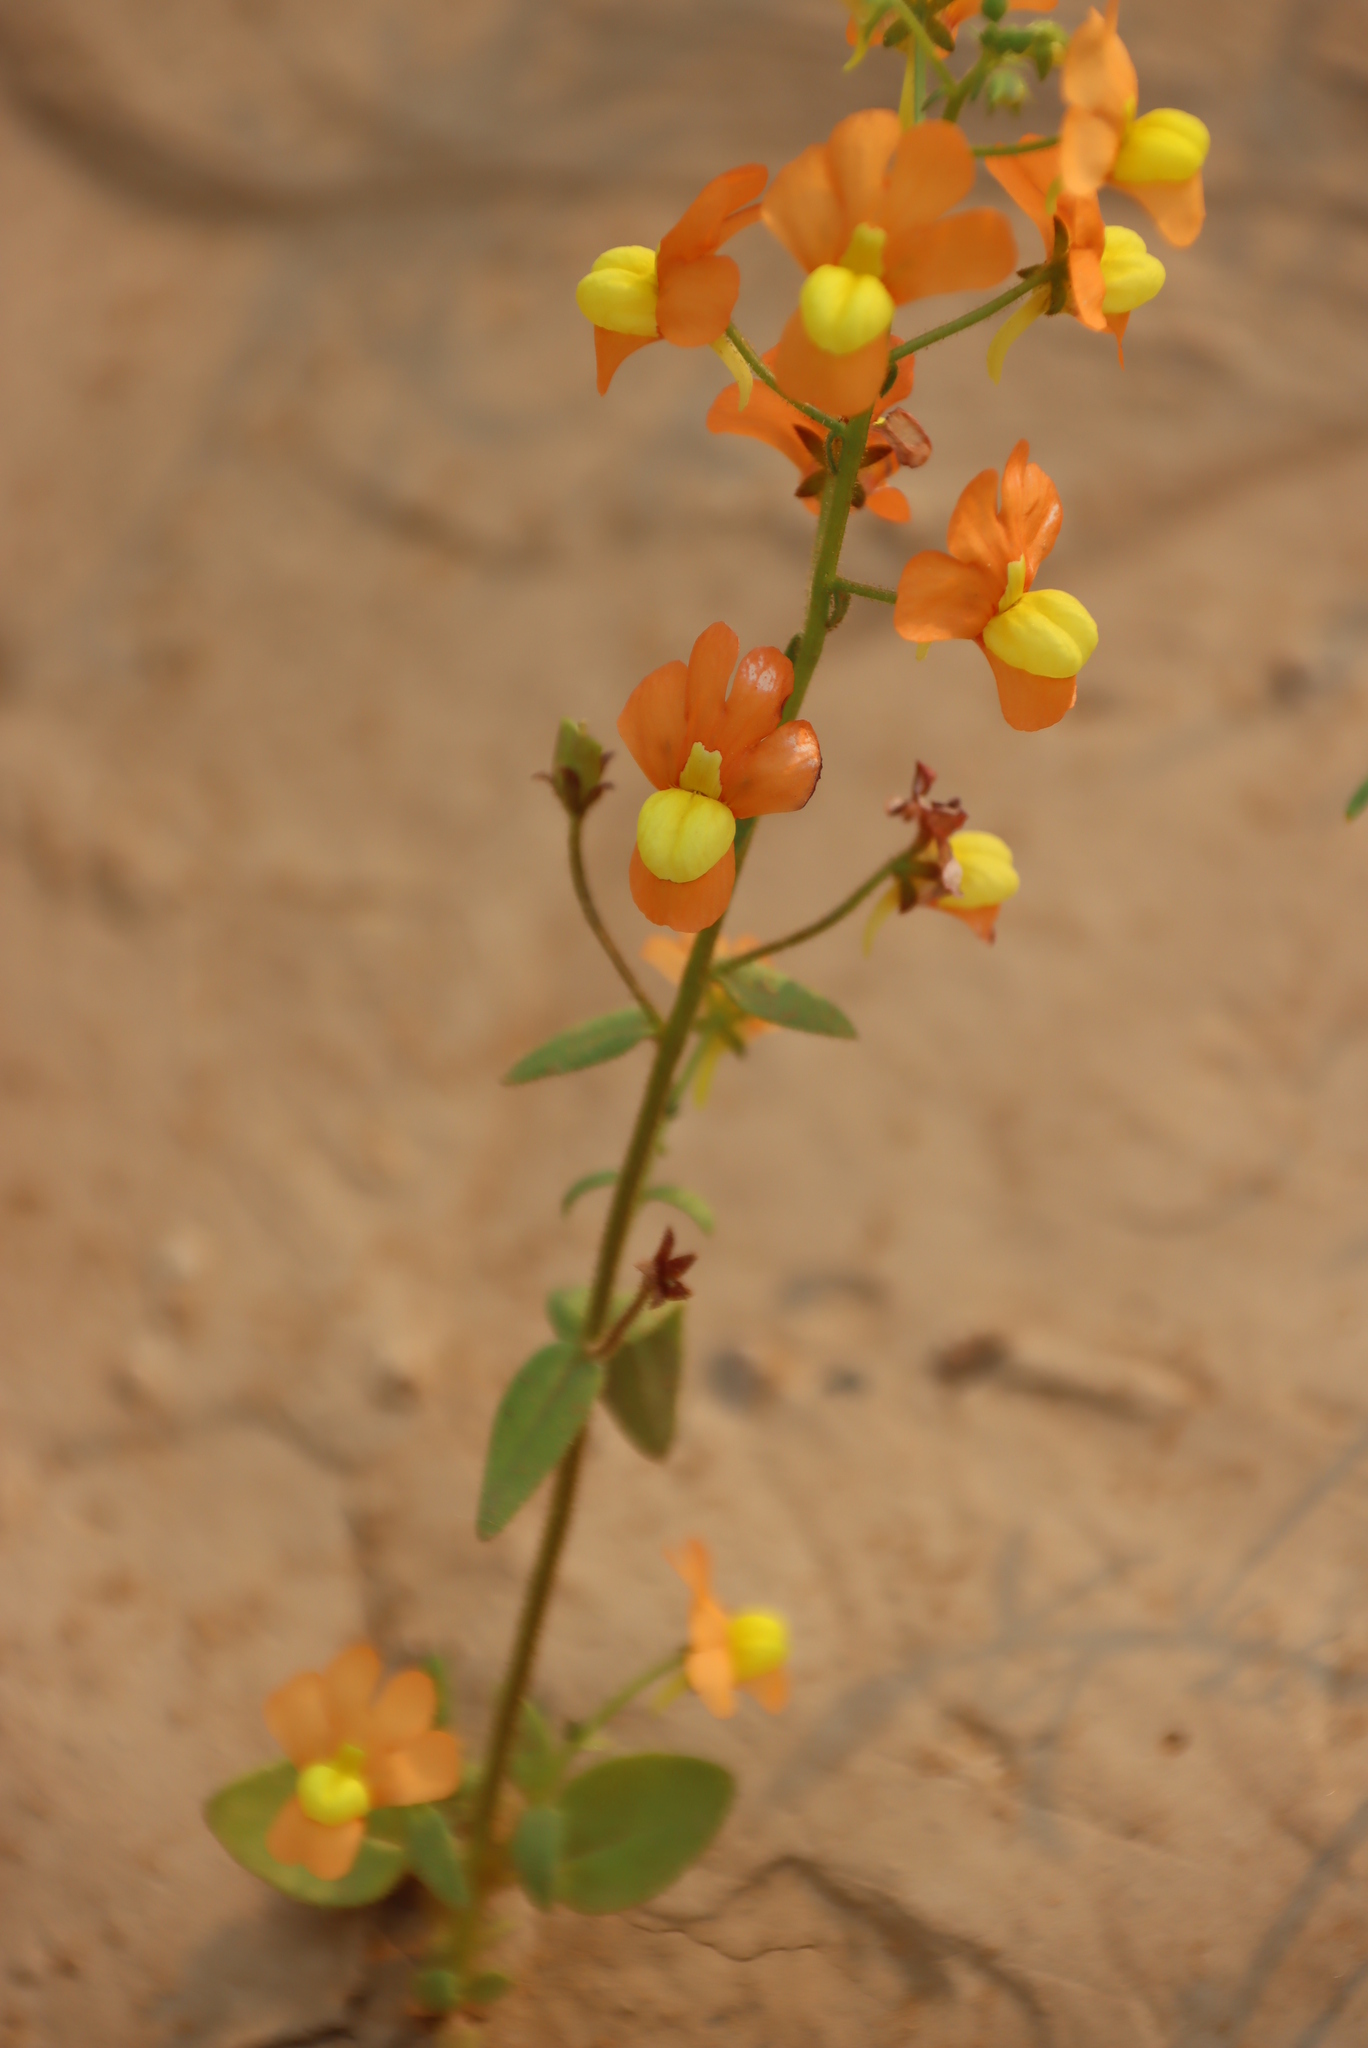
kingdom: Plantae
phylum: Tracheophyta
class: Magnoliopsida
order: Lamiales
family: Scrophulariaceae
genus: Nemesia
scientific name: Nemesia williamsonii
